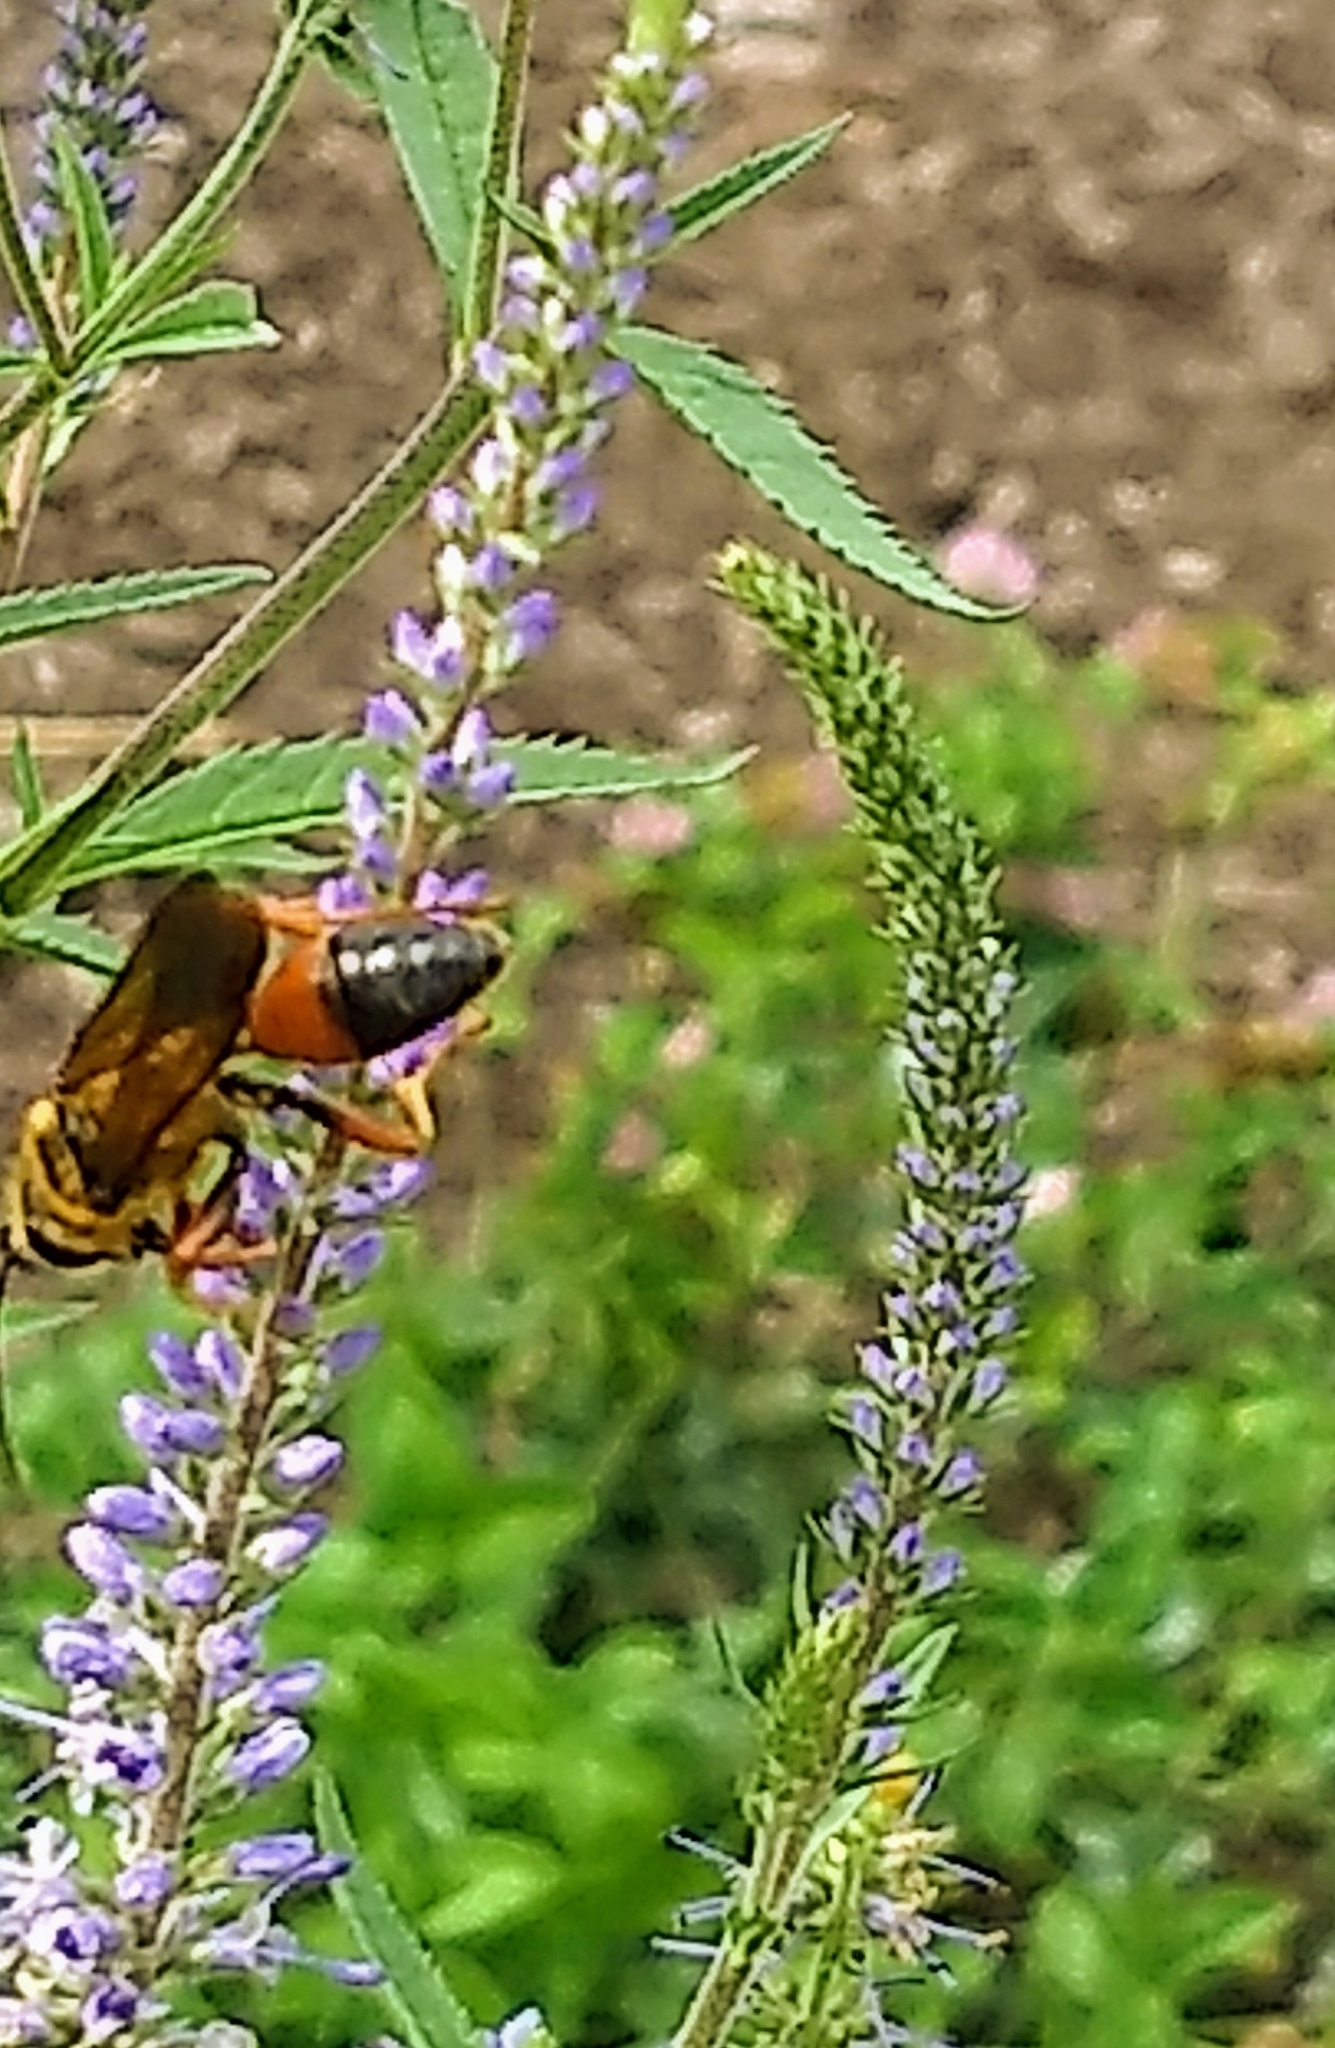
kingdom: Animalia
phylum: Arthropoda
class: Insecta
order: Hymenoptera
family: Sphecidae
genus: Sphex
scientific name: Sphex ichneumoneus
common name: Great golden digger wasp
